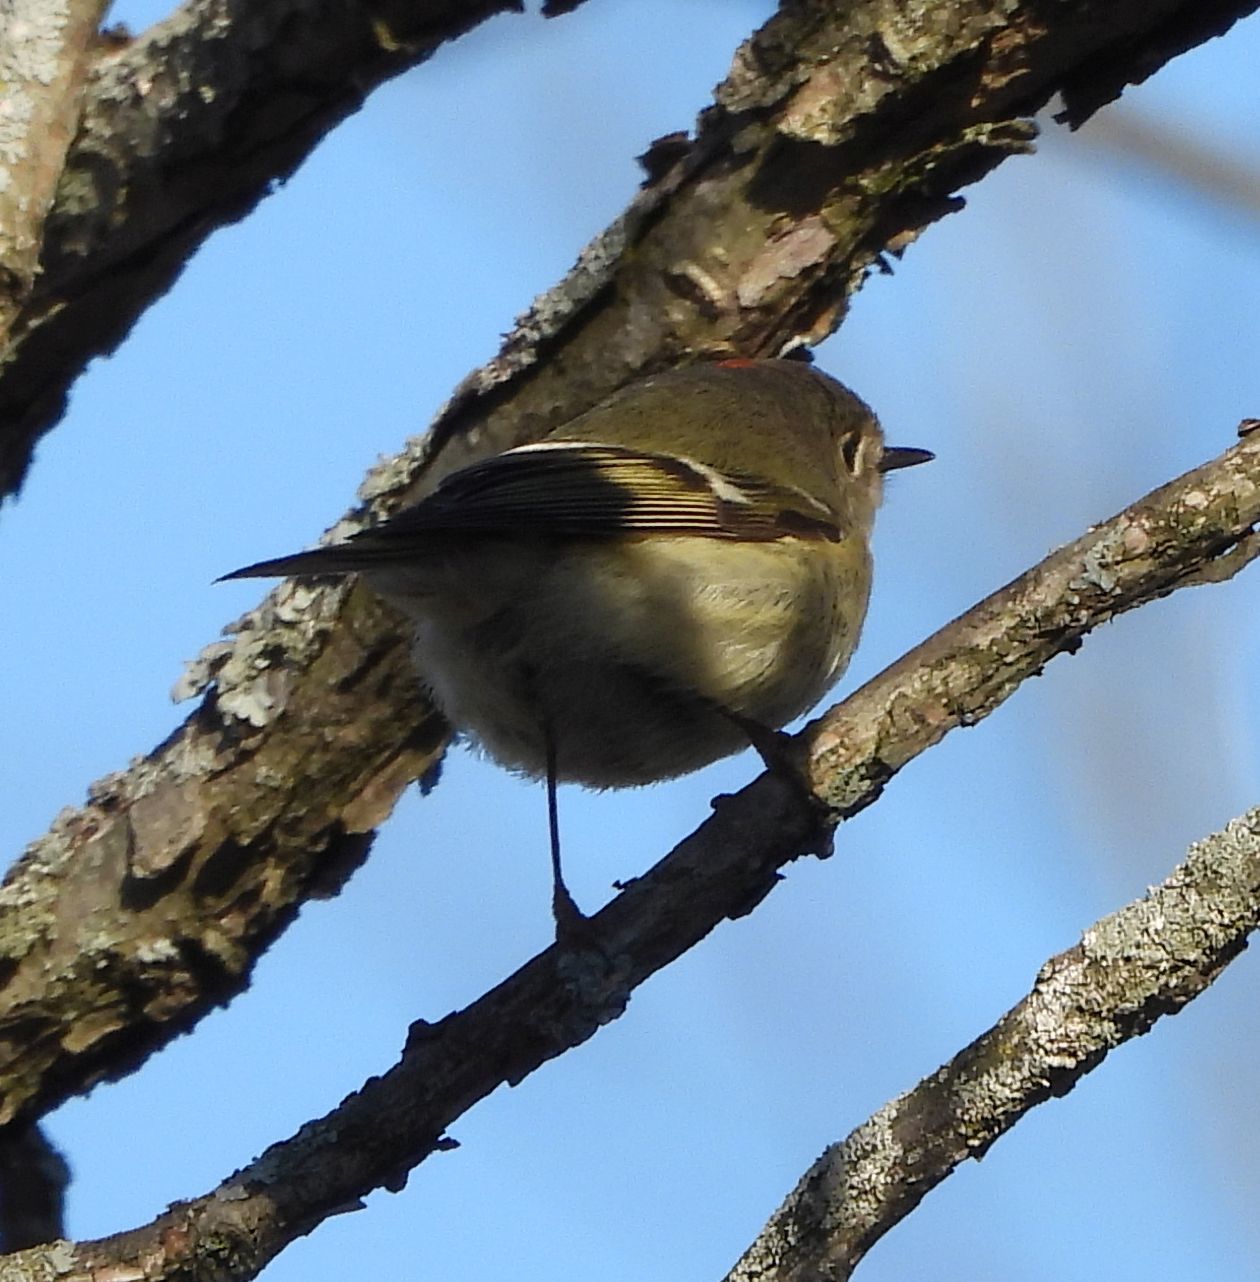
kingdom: Animalia
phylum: Chordata
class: Aves
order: Passeriformes
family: Regulidae
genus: Regulus
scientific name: Regulus calendula
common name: Ruby-crowned kinglet
